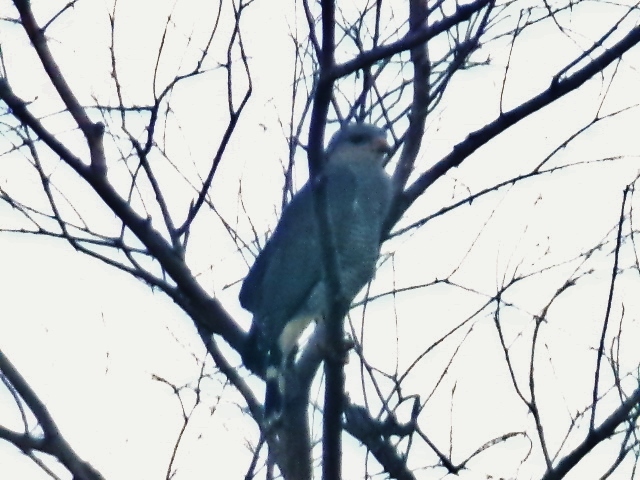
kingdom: Animalia
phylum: Chordata
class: Aves
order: Accipitriformes
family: Accipitridae
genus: Buteo
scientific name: Buteo nitidus
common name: Grey-lined hawk
